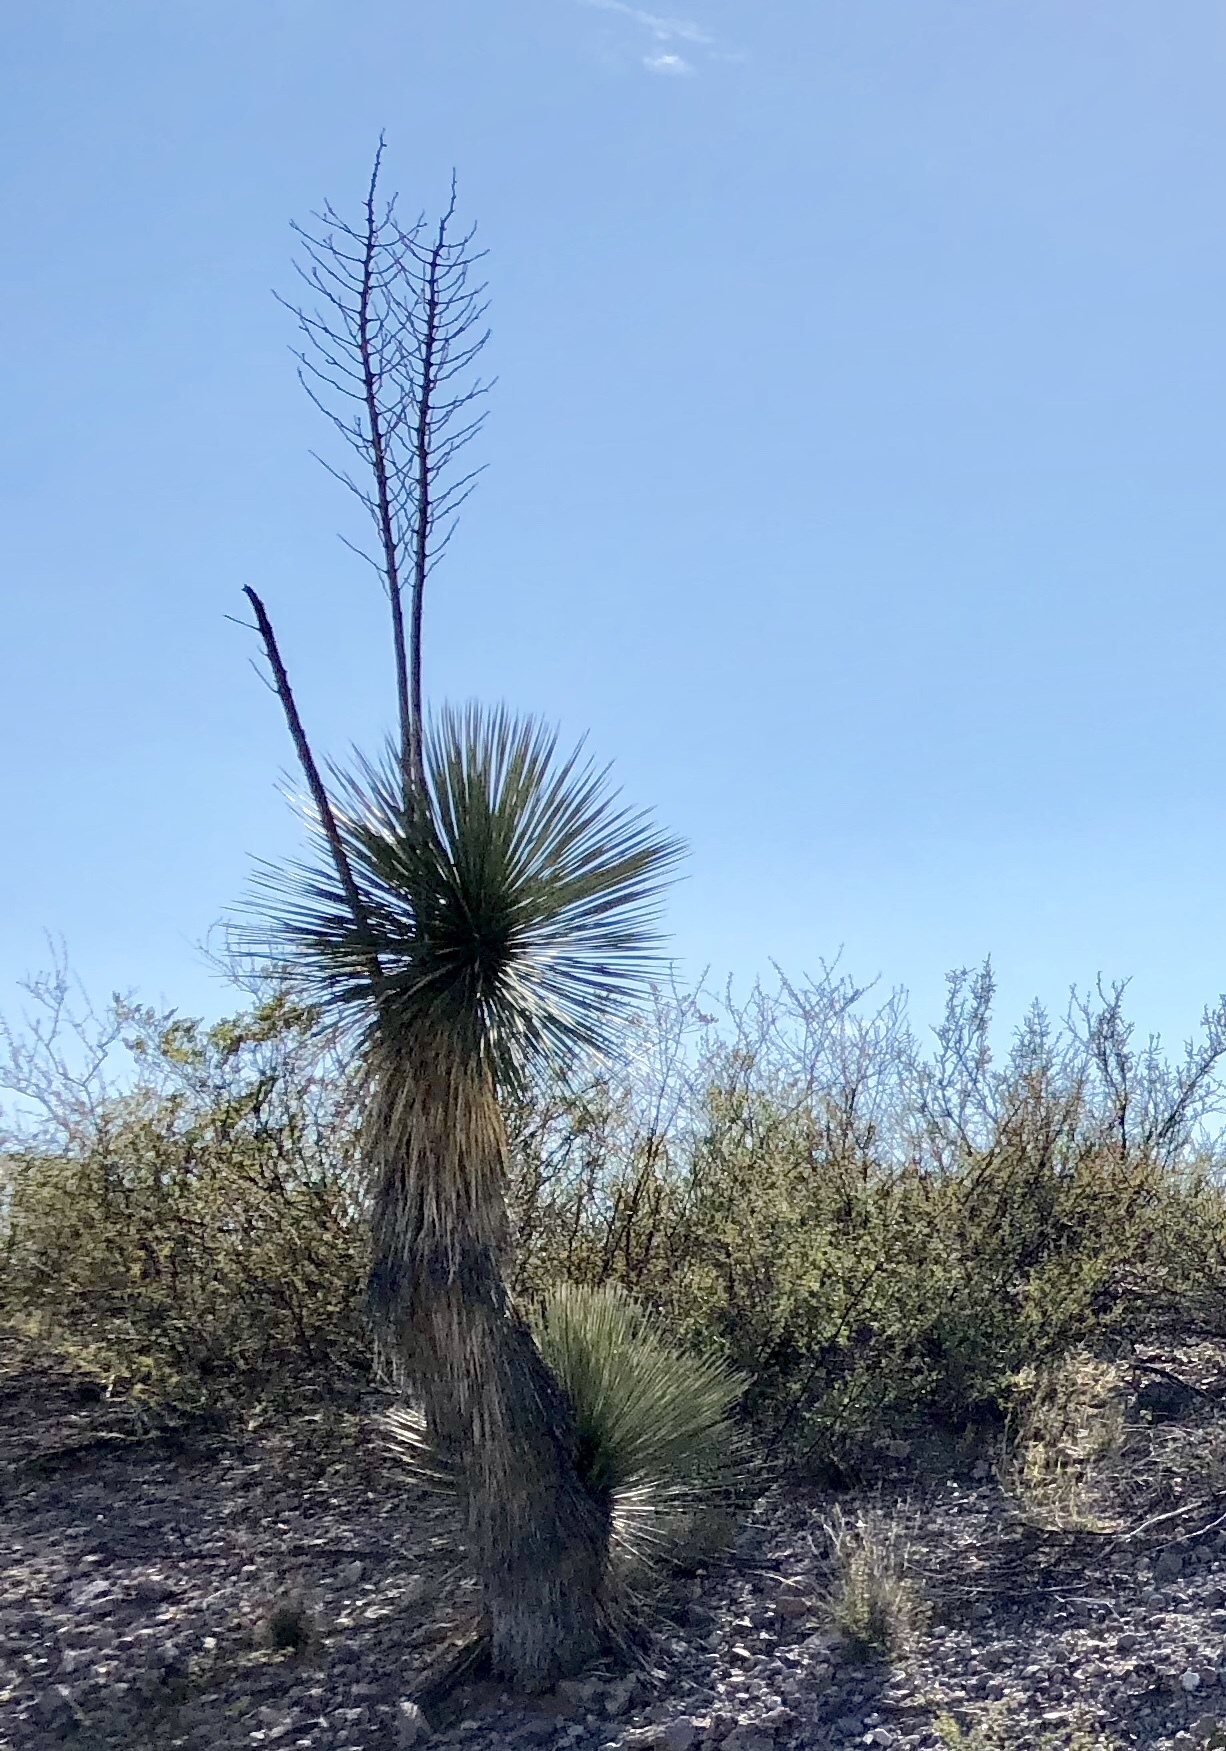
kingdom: Plantae
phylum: Tracheophyta
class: Liliopsida
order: Asparagales
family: Asparagaceae
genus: Yucca
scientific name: Yucca elata
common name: Palmella
